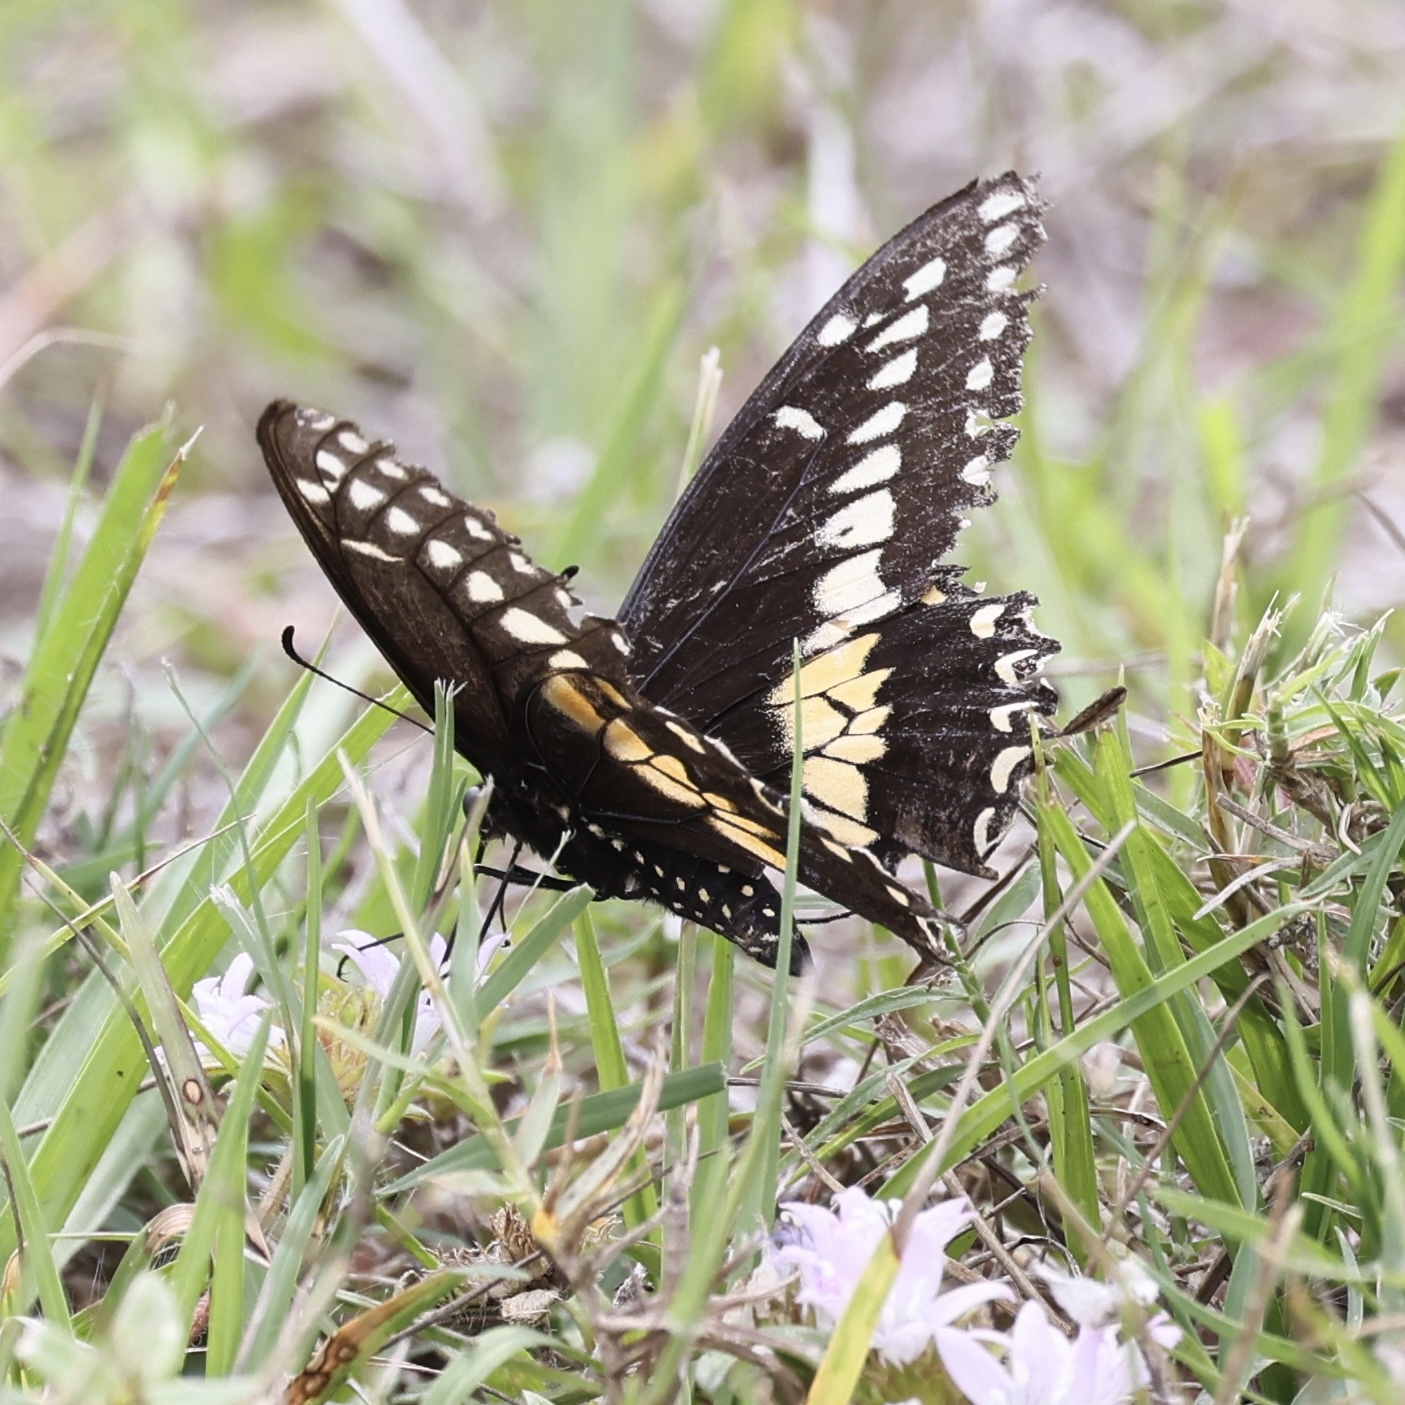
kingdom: Animalia
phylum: Arthropoda
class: Insecta
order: Lepidoptera
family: Papilionidae
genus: Papilio
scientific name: Papilio polyxenes
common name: Black swallowtail
